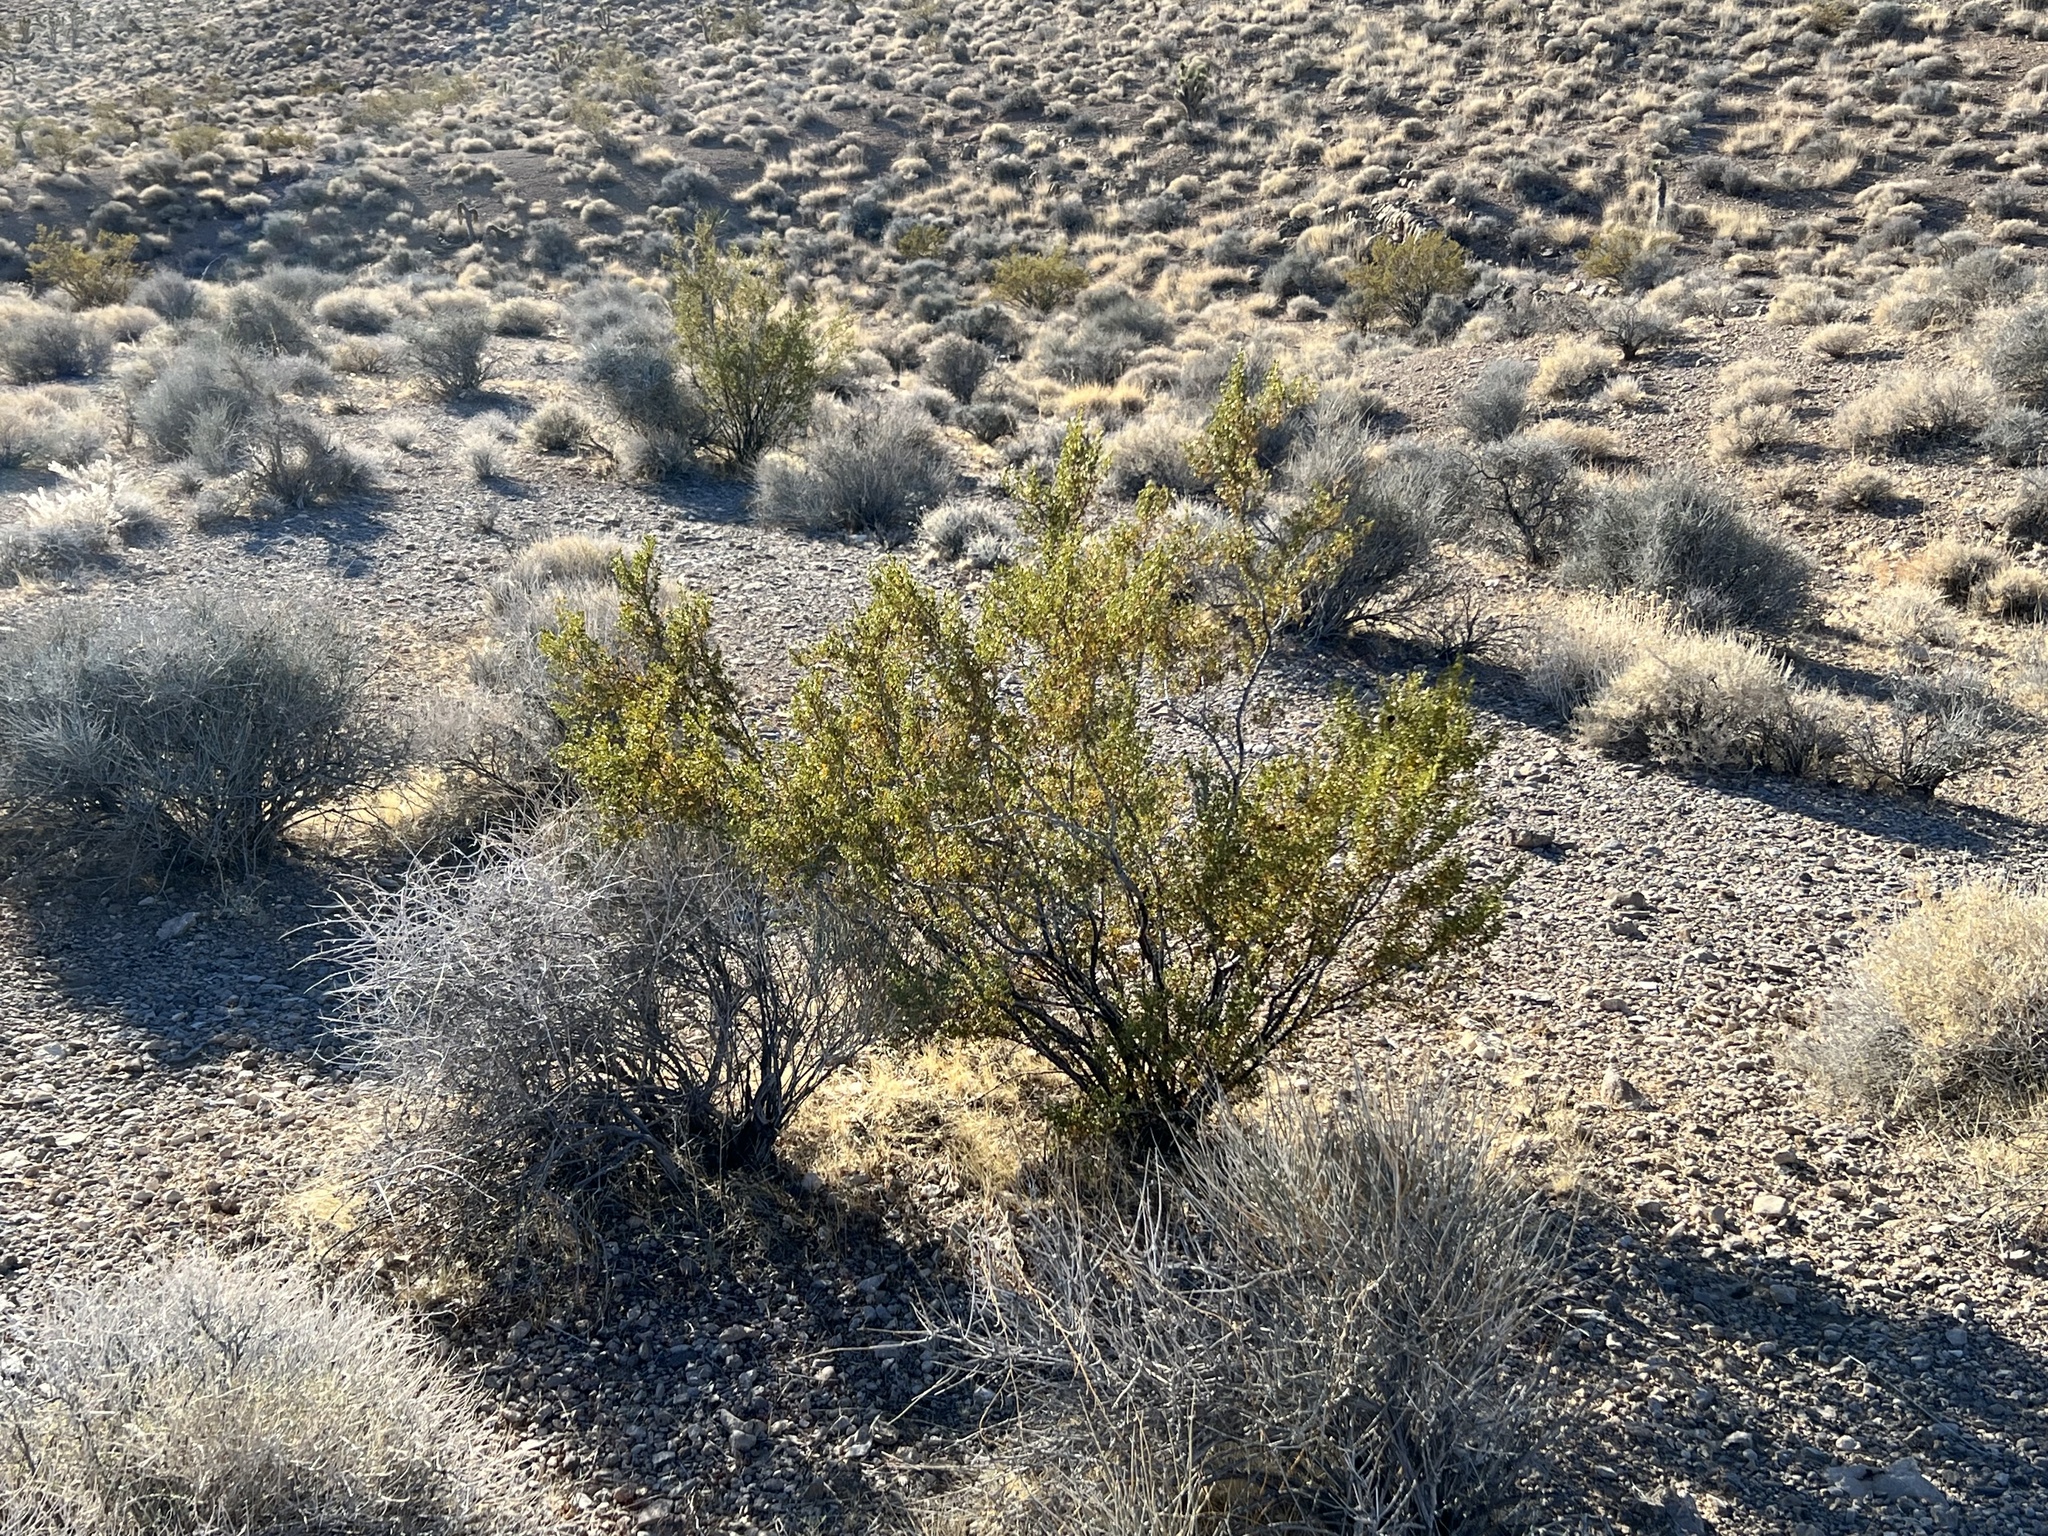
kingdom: Plantae
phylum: Tracheophyta
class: Magnoliopsida
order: Zygophyllales
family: Zygophyllaceae
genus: Larrea
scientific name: Larrea tridentata
